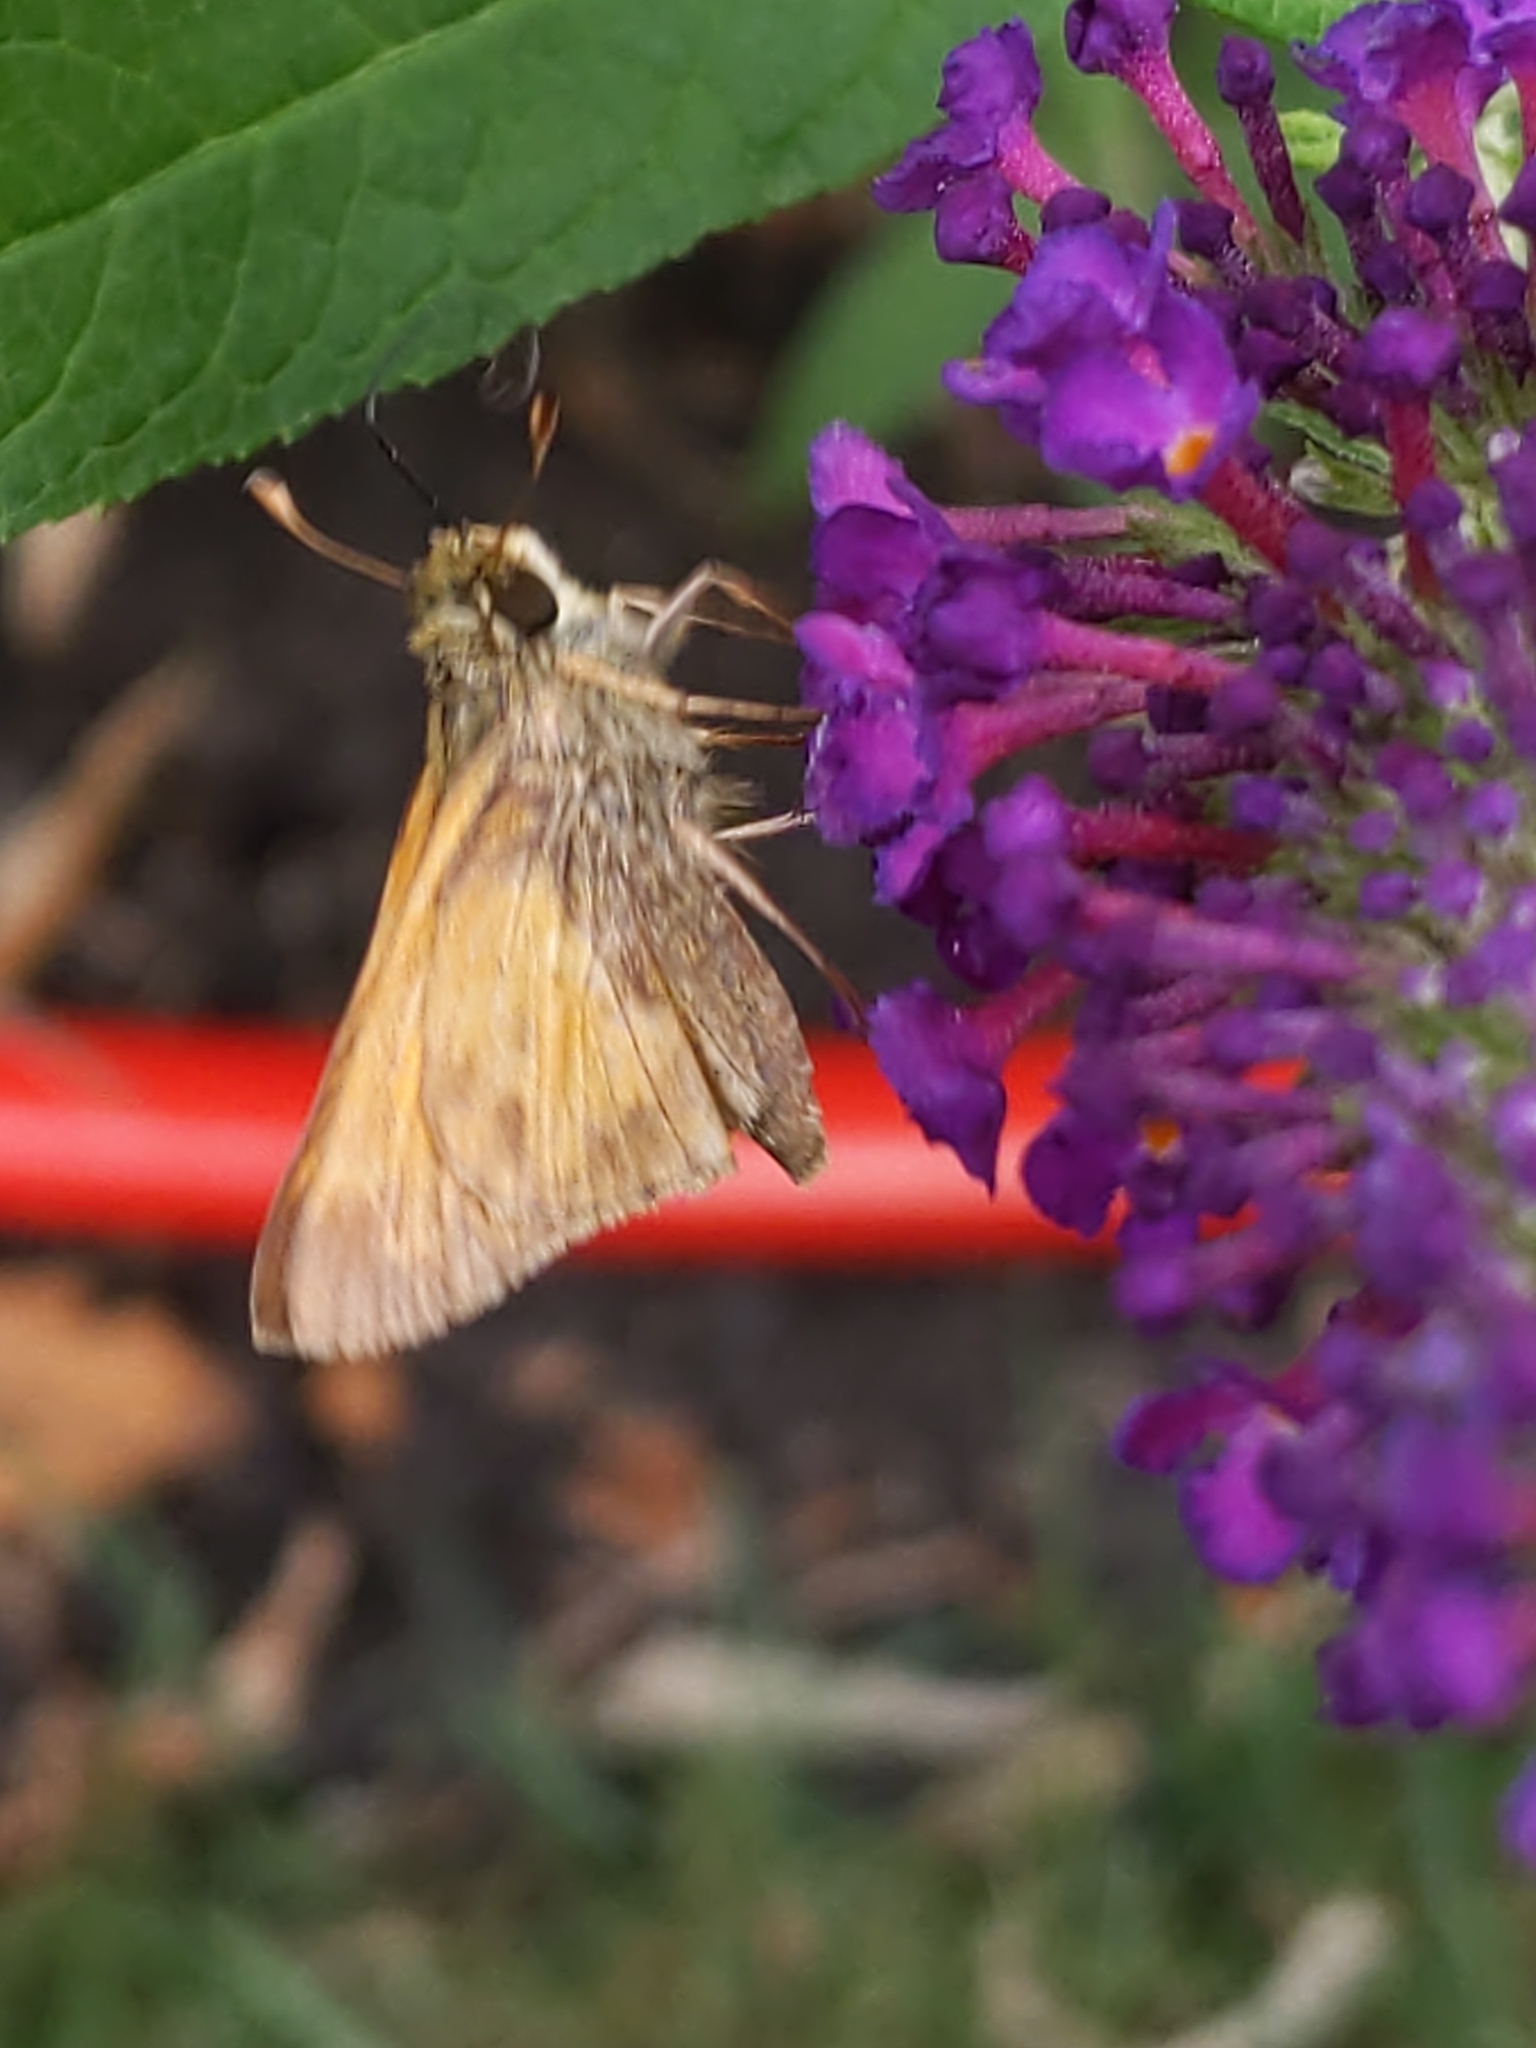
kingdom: Animalia
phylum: Arthropoda
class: Insecta
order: Lepidoptera
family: Hesperiidae
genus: Atalopedes
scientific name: Atalopedes
